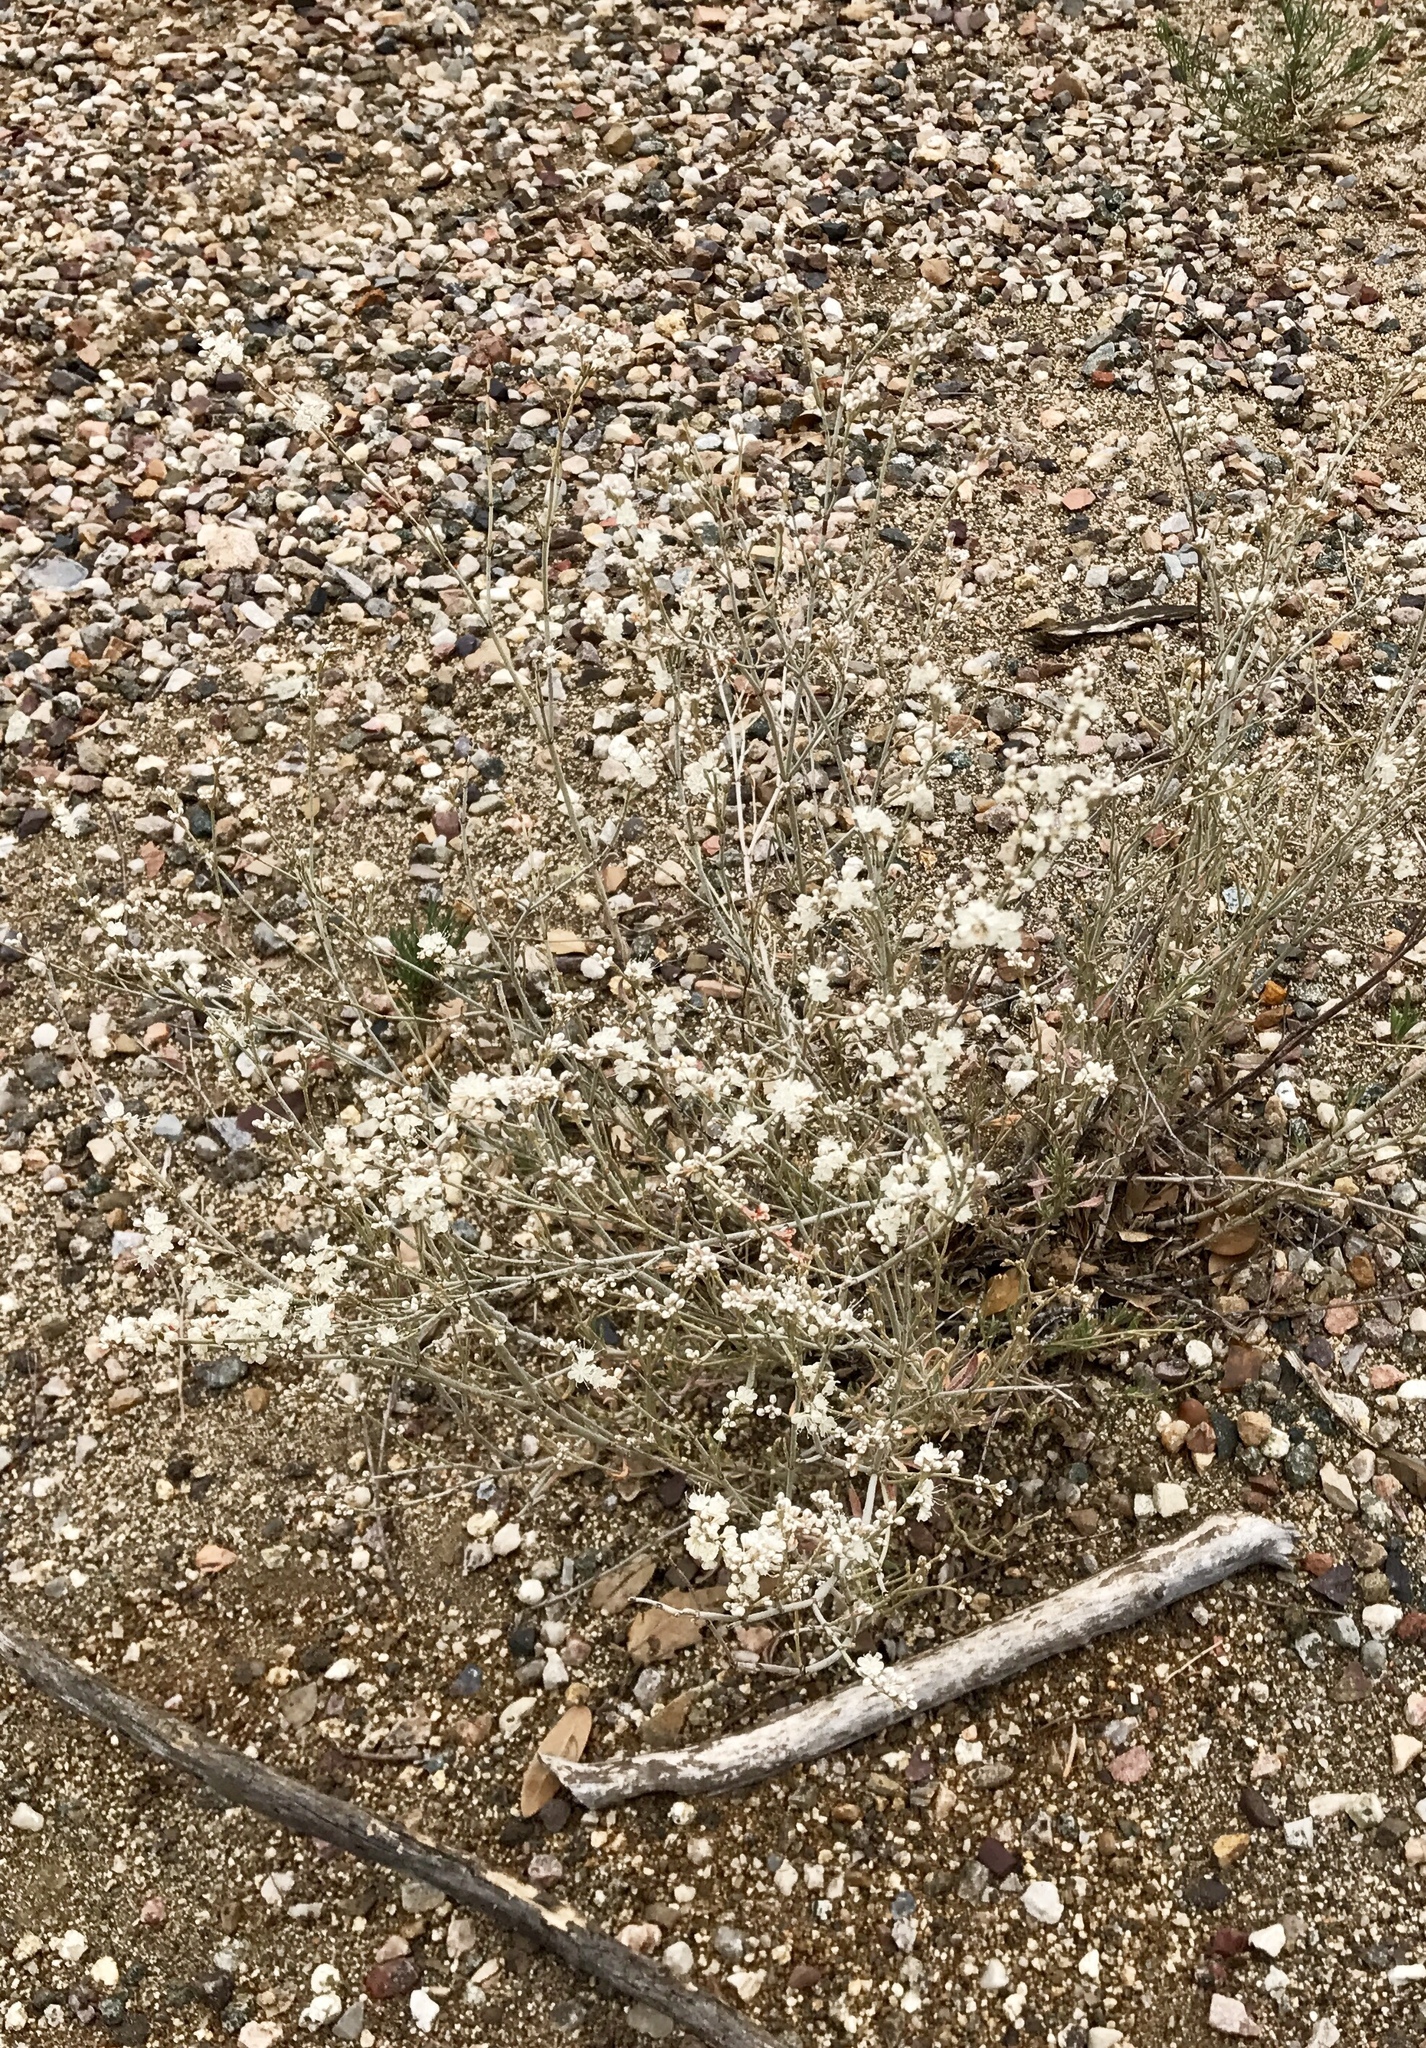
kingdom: Plantae
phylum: Tracheophyta
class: Magnoliopsida
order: Caryophyllales
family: Polygonaceae
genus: Eriogonum
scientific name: Eriogonum wrightii
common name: Bastard-sage
